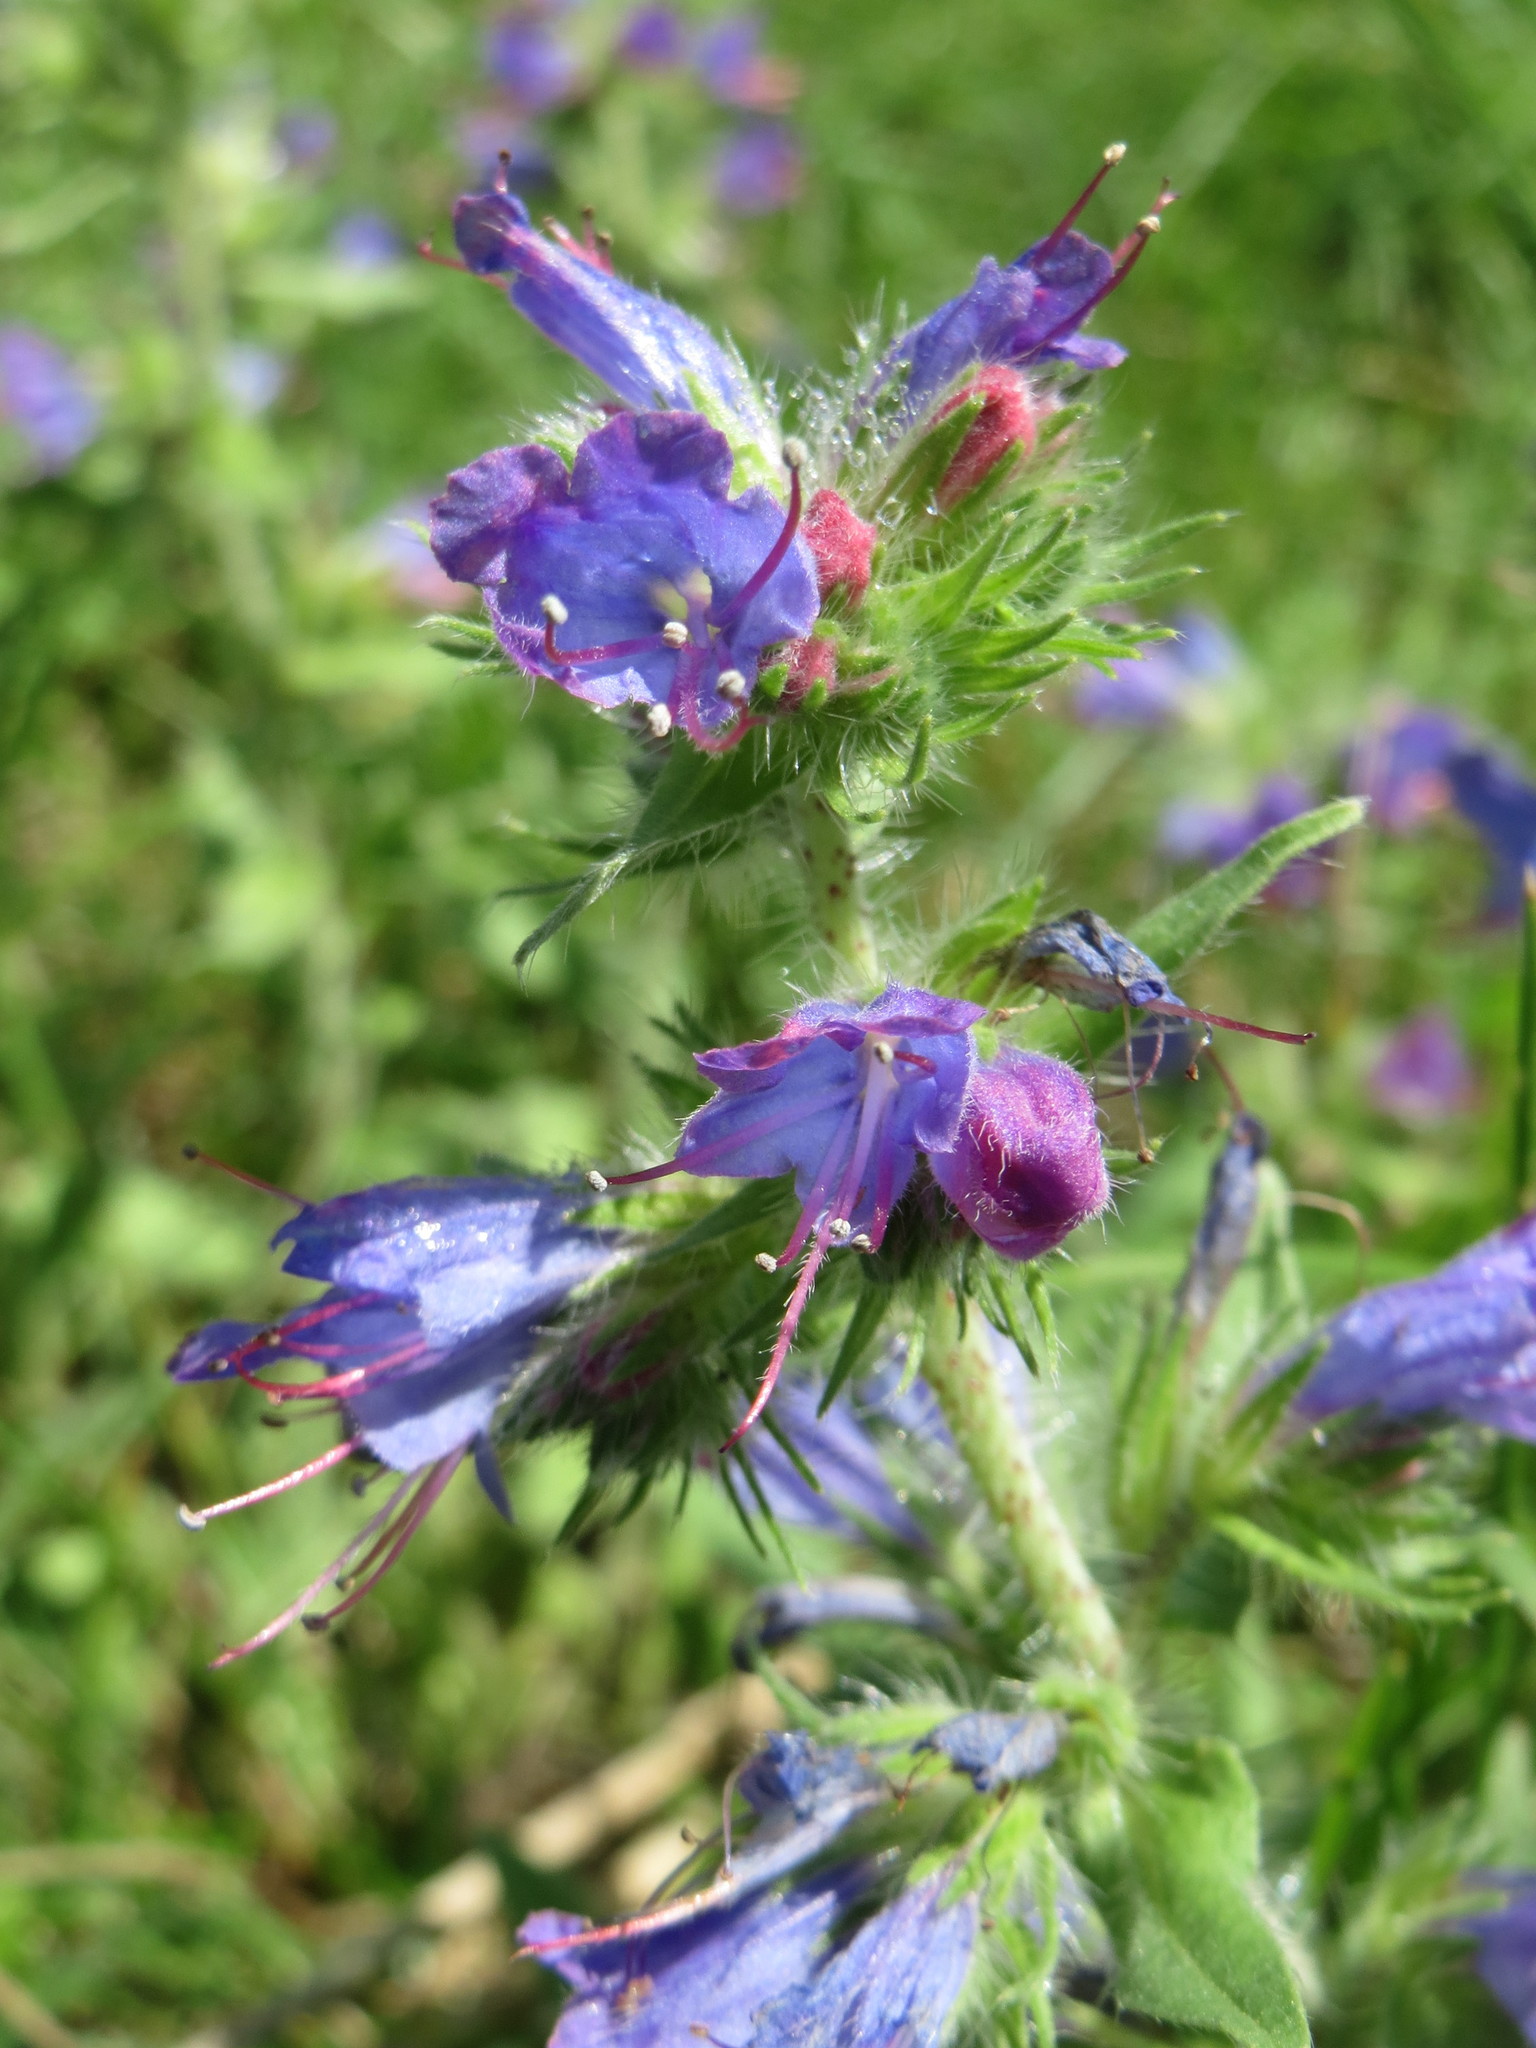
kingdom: Plantae
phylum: Tracheophyta
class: Magnoliopsida
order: Boraginales
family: Boraginaceae
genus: Echium
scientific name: Echium vulgare
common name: Common viper's bugloss
